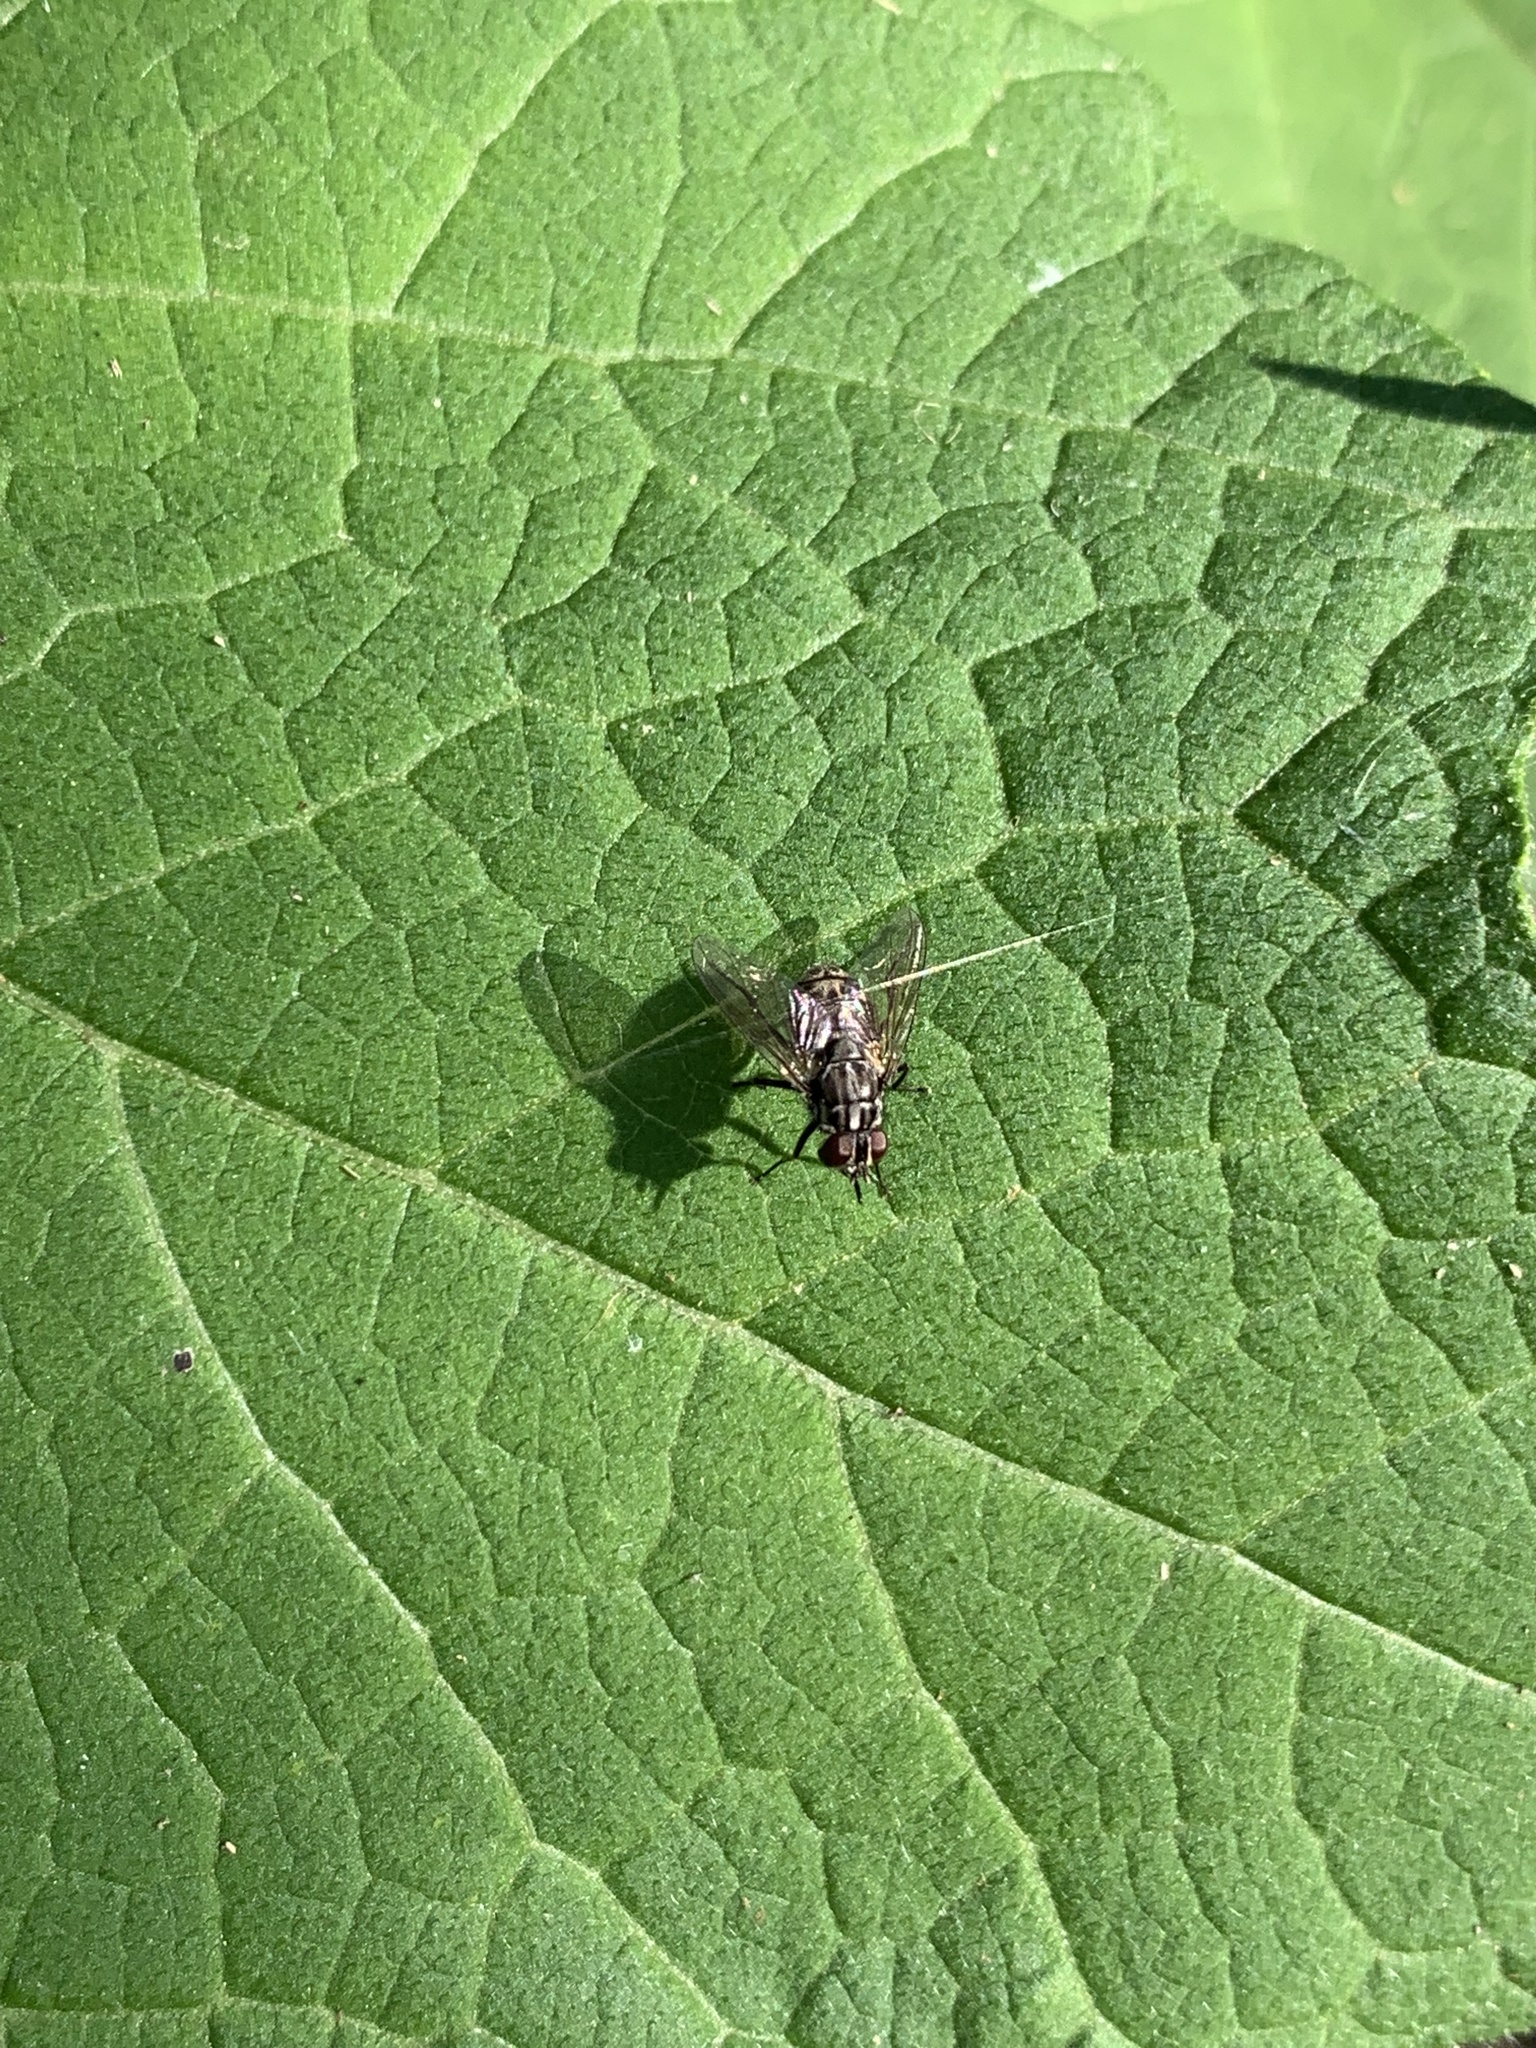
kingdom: Animalia
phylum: Arthropoda
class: Insecta
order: Diptera
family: Muscidae
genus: Stomoxys
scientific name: Stomoxys calcitrans
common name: Stable fly
